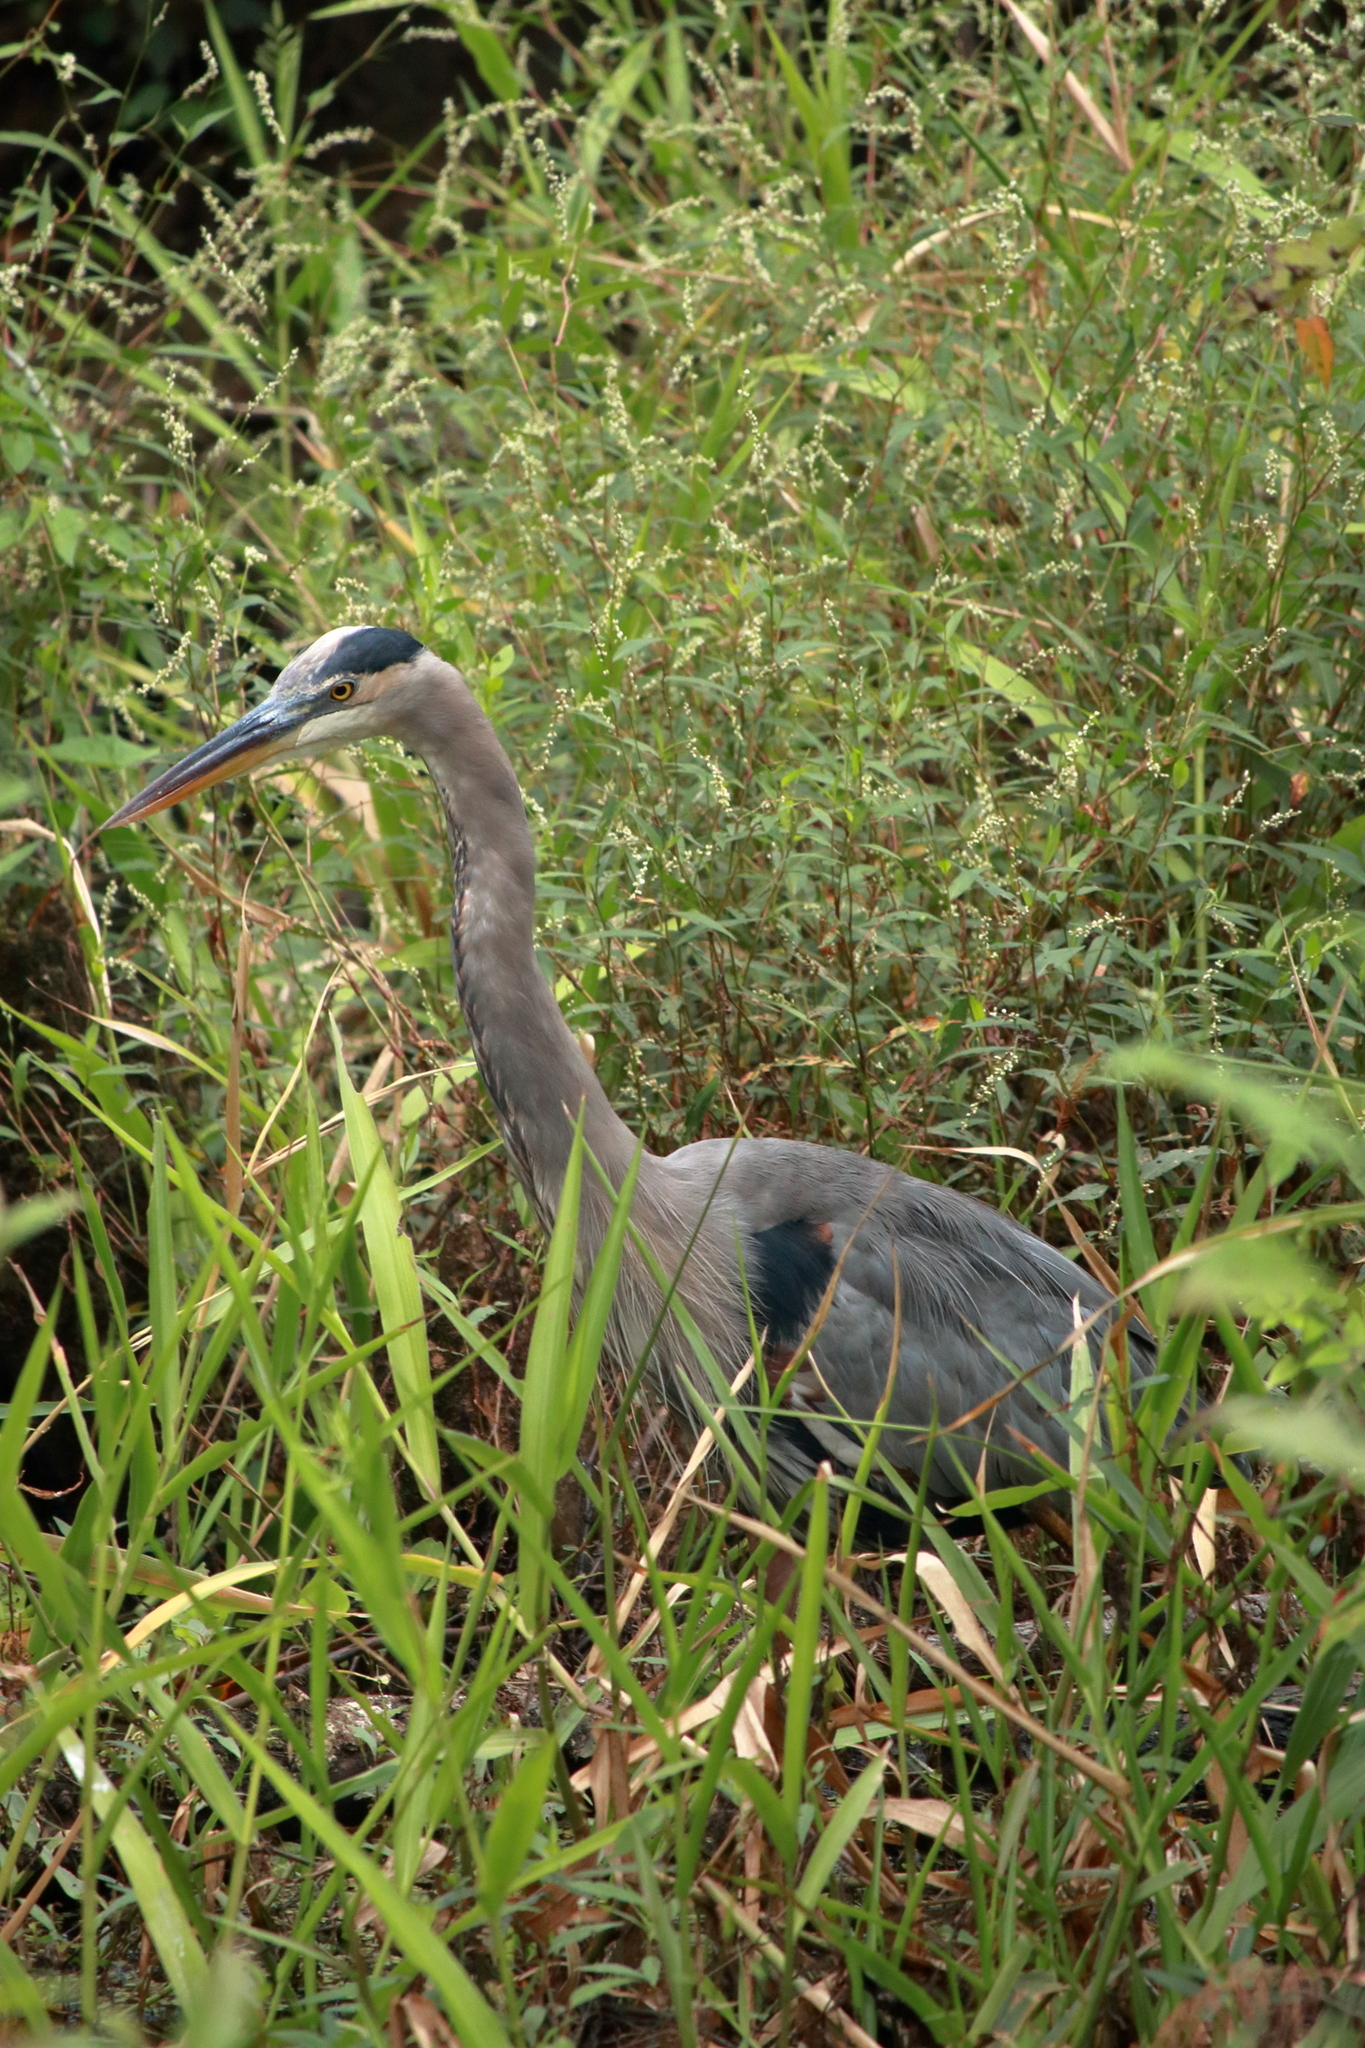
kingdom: Animalia
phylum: Chordata
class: Aves
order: Pelecaniformes
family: Ardeidae
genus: Ardea
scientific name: Ardea herodias
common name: Great blue heron
